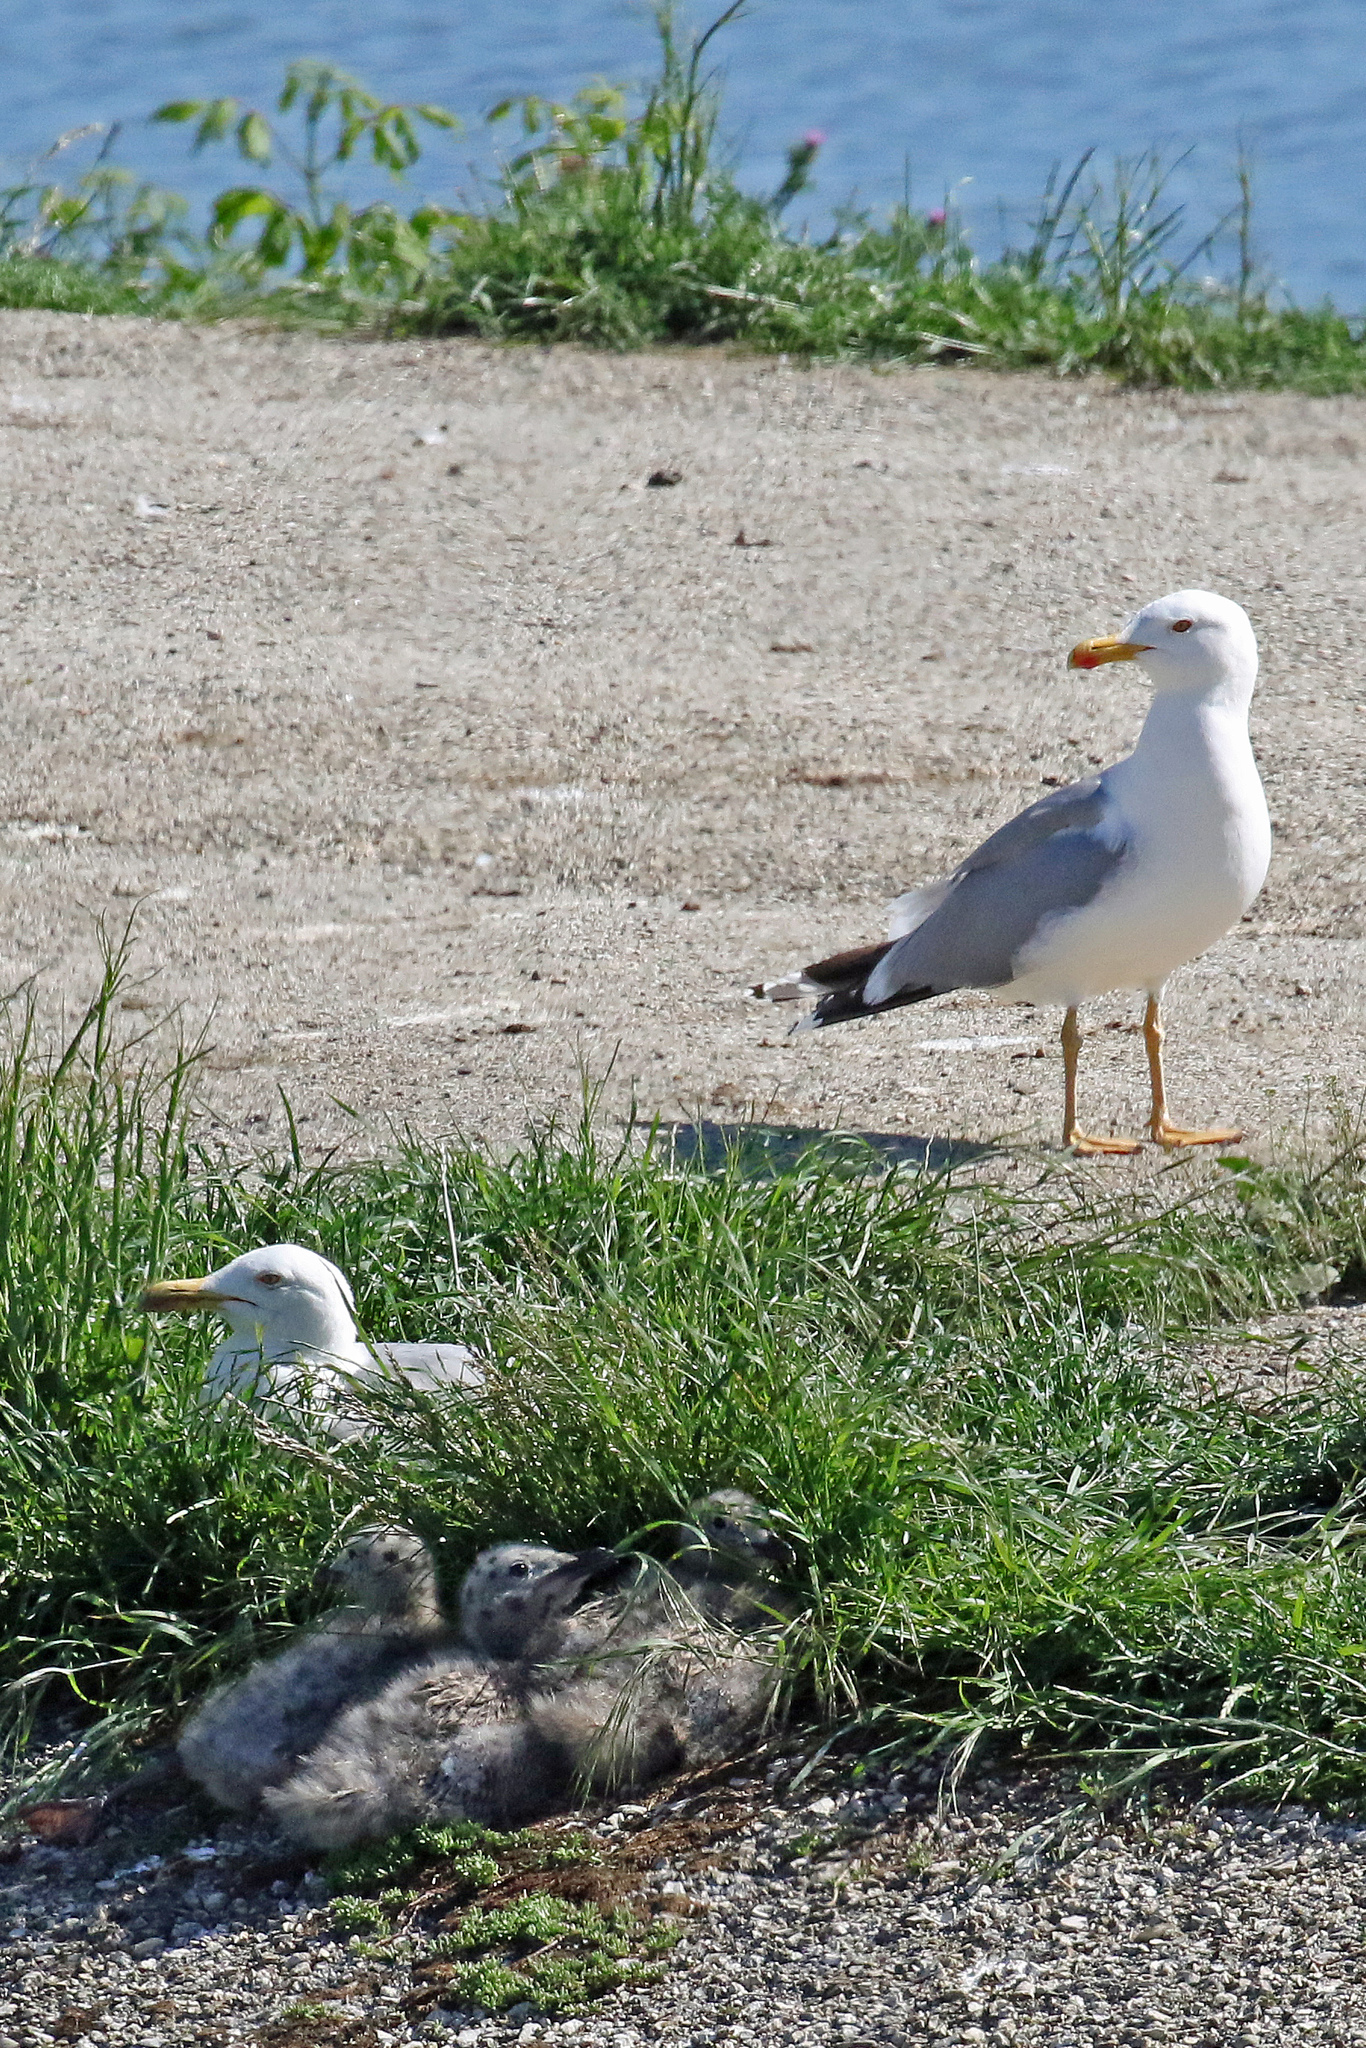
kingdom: Animalia
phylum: Chordata
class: Aves
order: Charadriiformes
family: Laridae
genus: Larus
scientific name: Larus michahellis
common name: Yellow-legged gull
